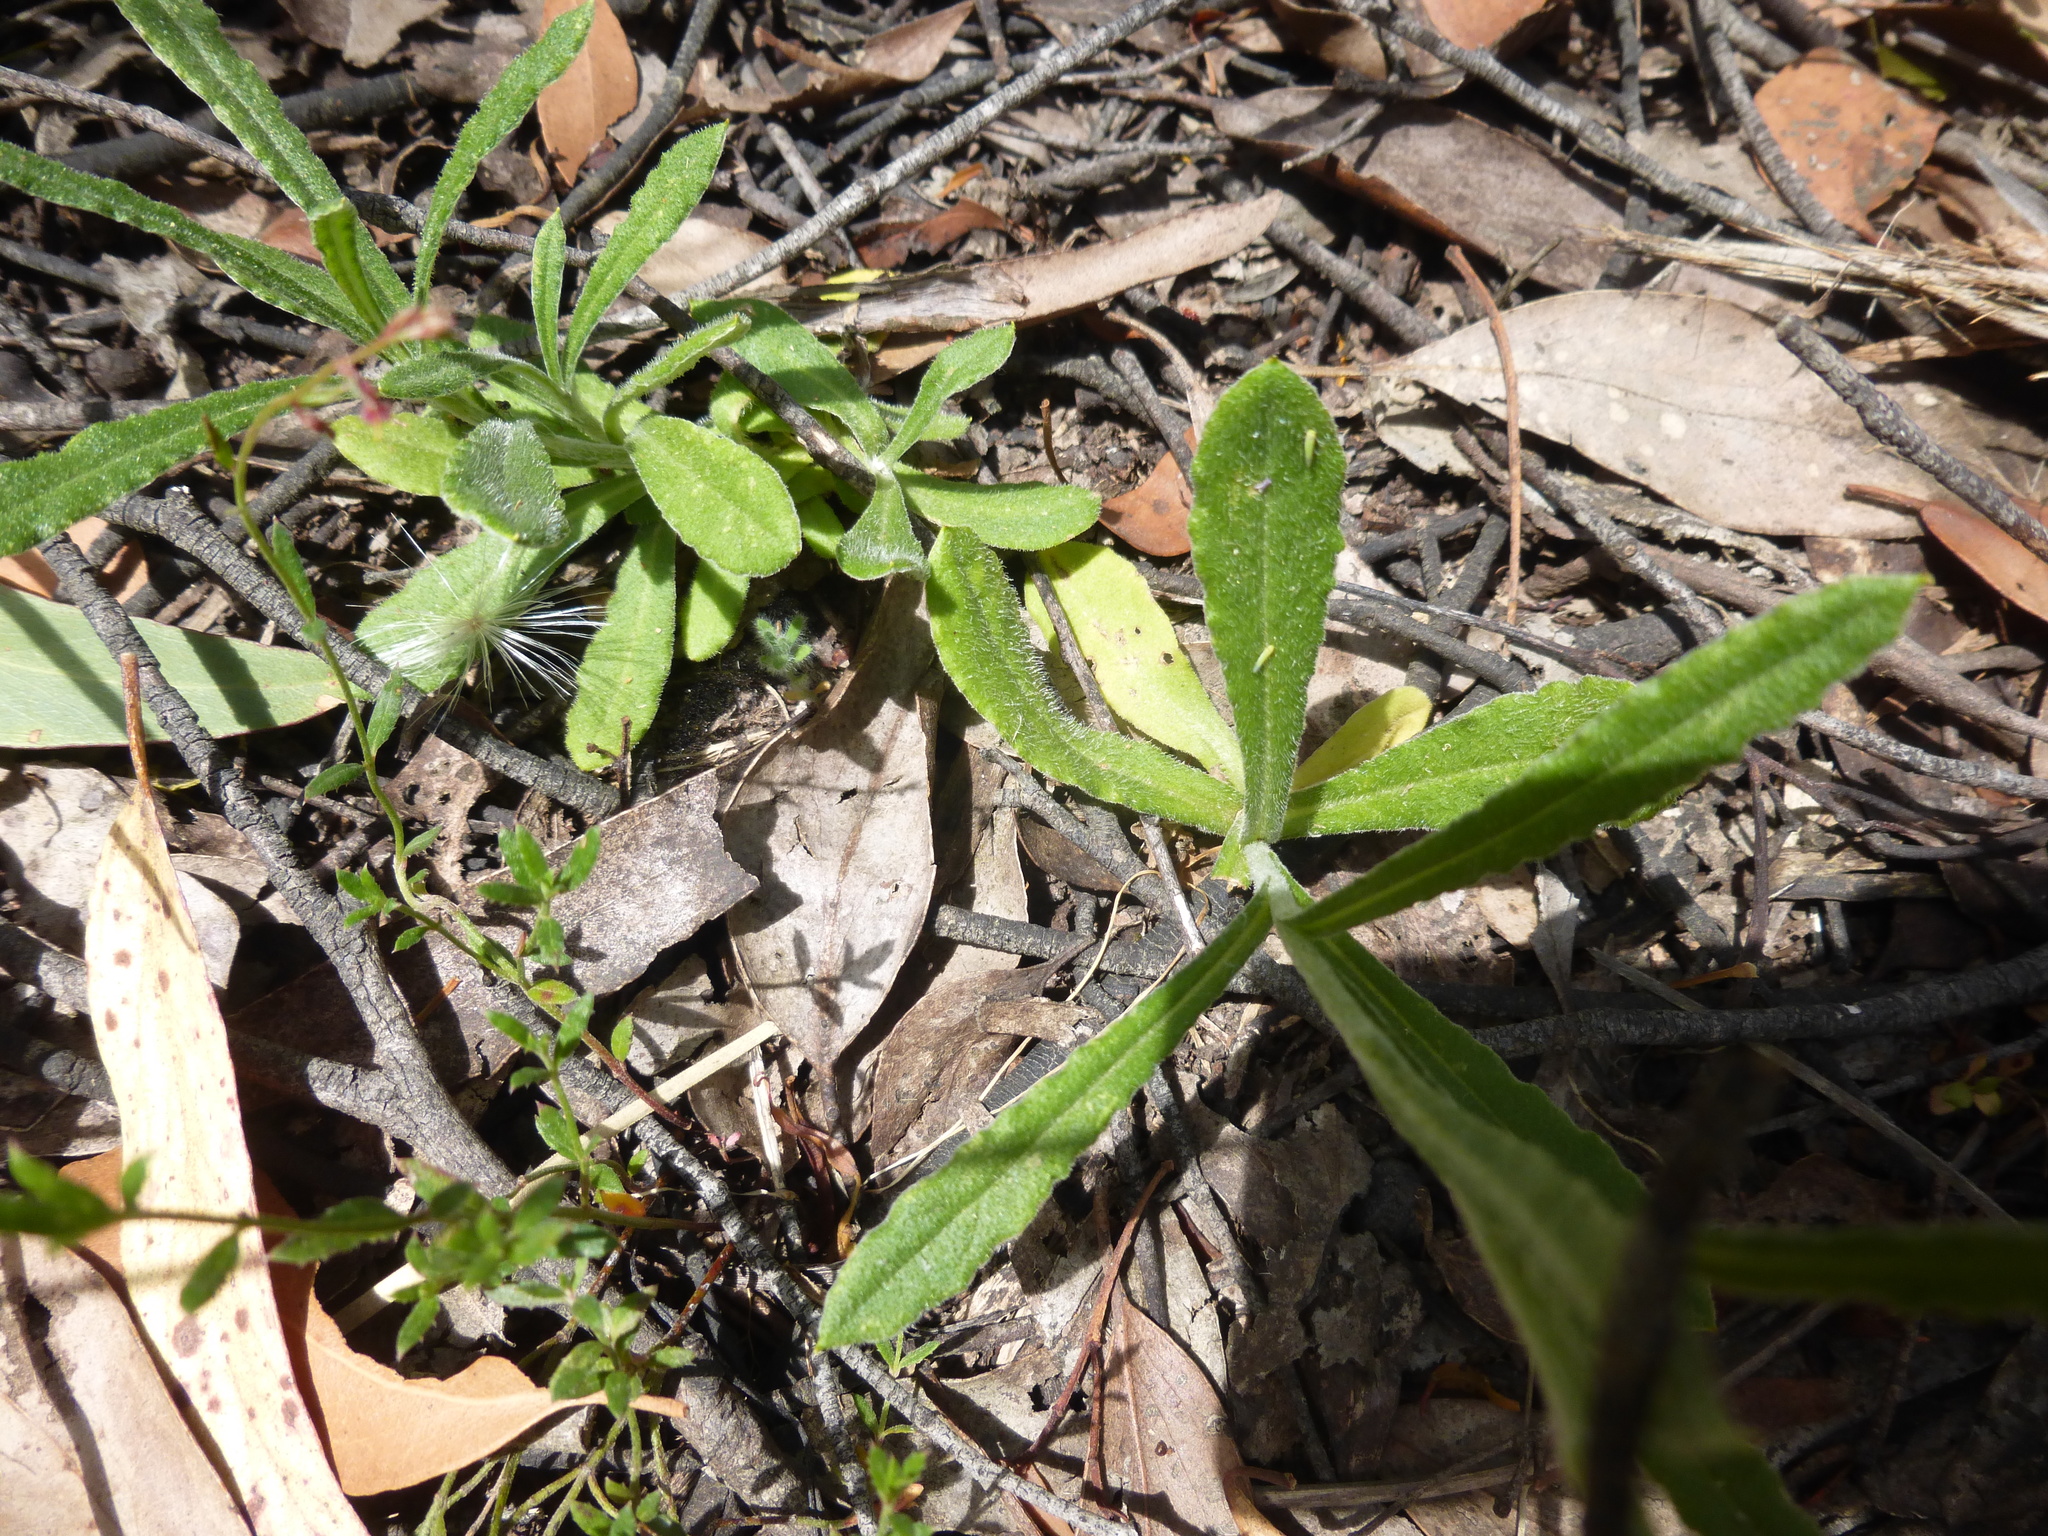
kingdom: Plantae
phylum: Tracheophyta
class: Magnoliopsida
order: Asterales
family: Asteraceae
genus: Coronidium
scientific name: Coronidium scorpioides
